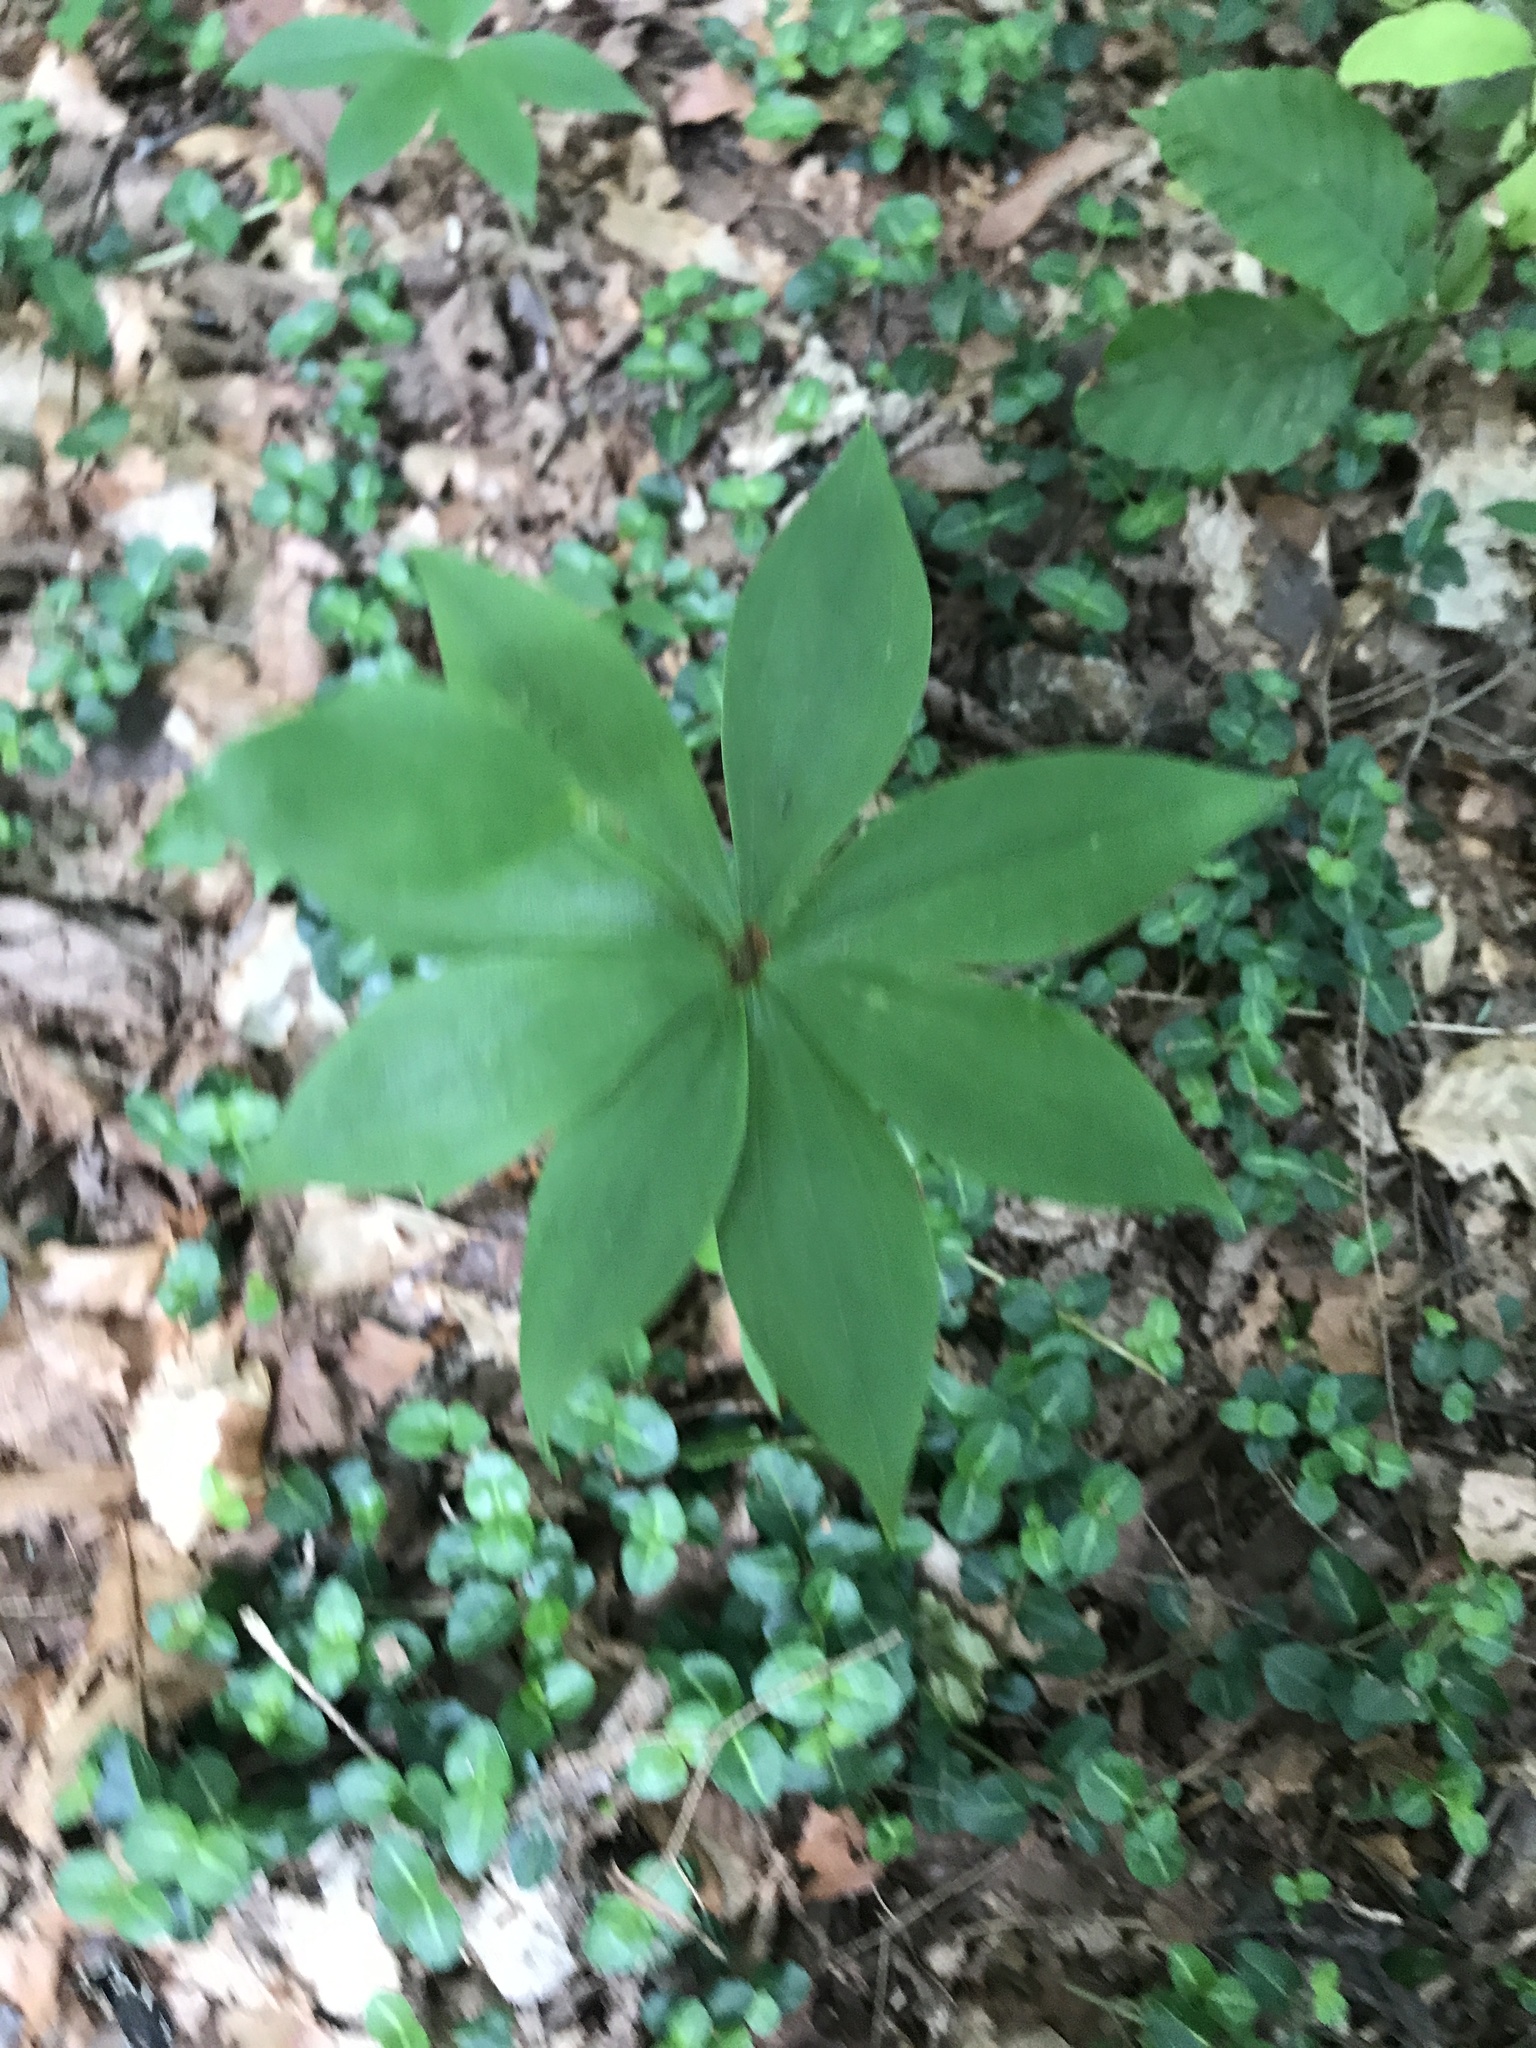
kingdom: Plantae
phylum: Tracheophyta
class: Liliopsida
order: Liliales
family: Liliaceae
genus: Medeola
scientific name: Medeola virginiana
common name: Indian cucumber-root
